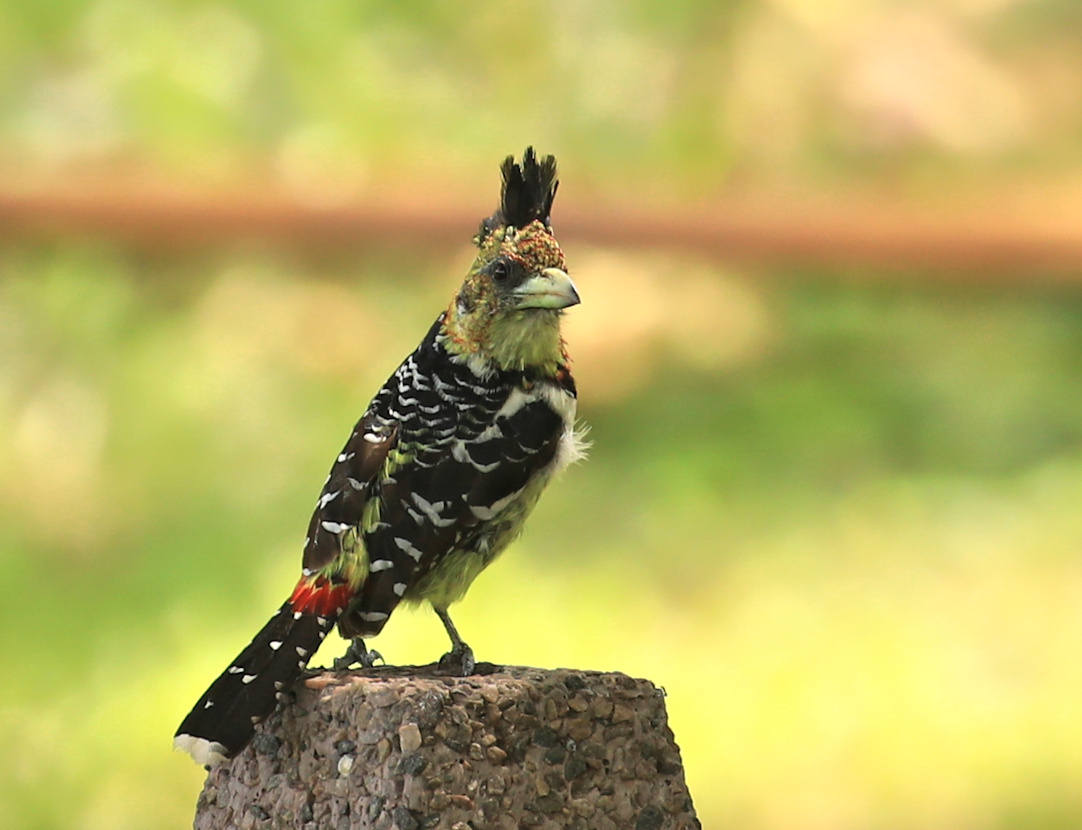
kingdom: Animalia
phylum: Chordata
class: Aves
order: Piciformes
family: Lybiidae
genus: Trachyphonus
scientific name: Trachyphonus vaillantii
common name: Crested barbet
